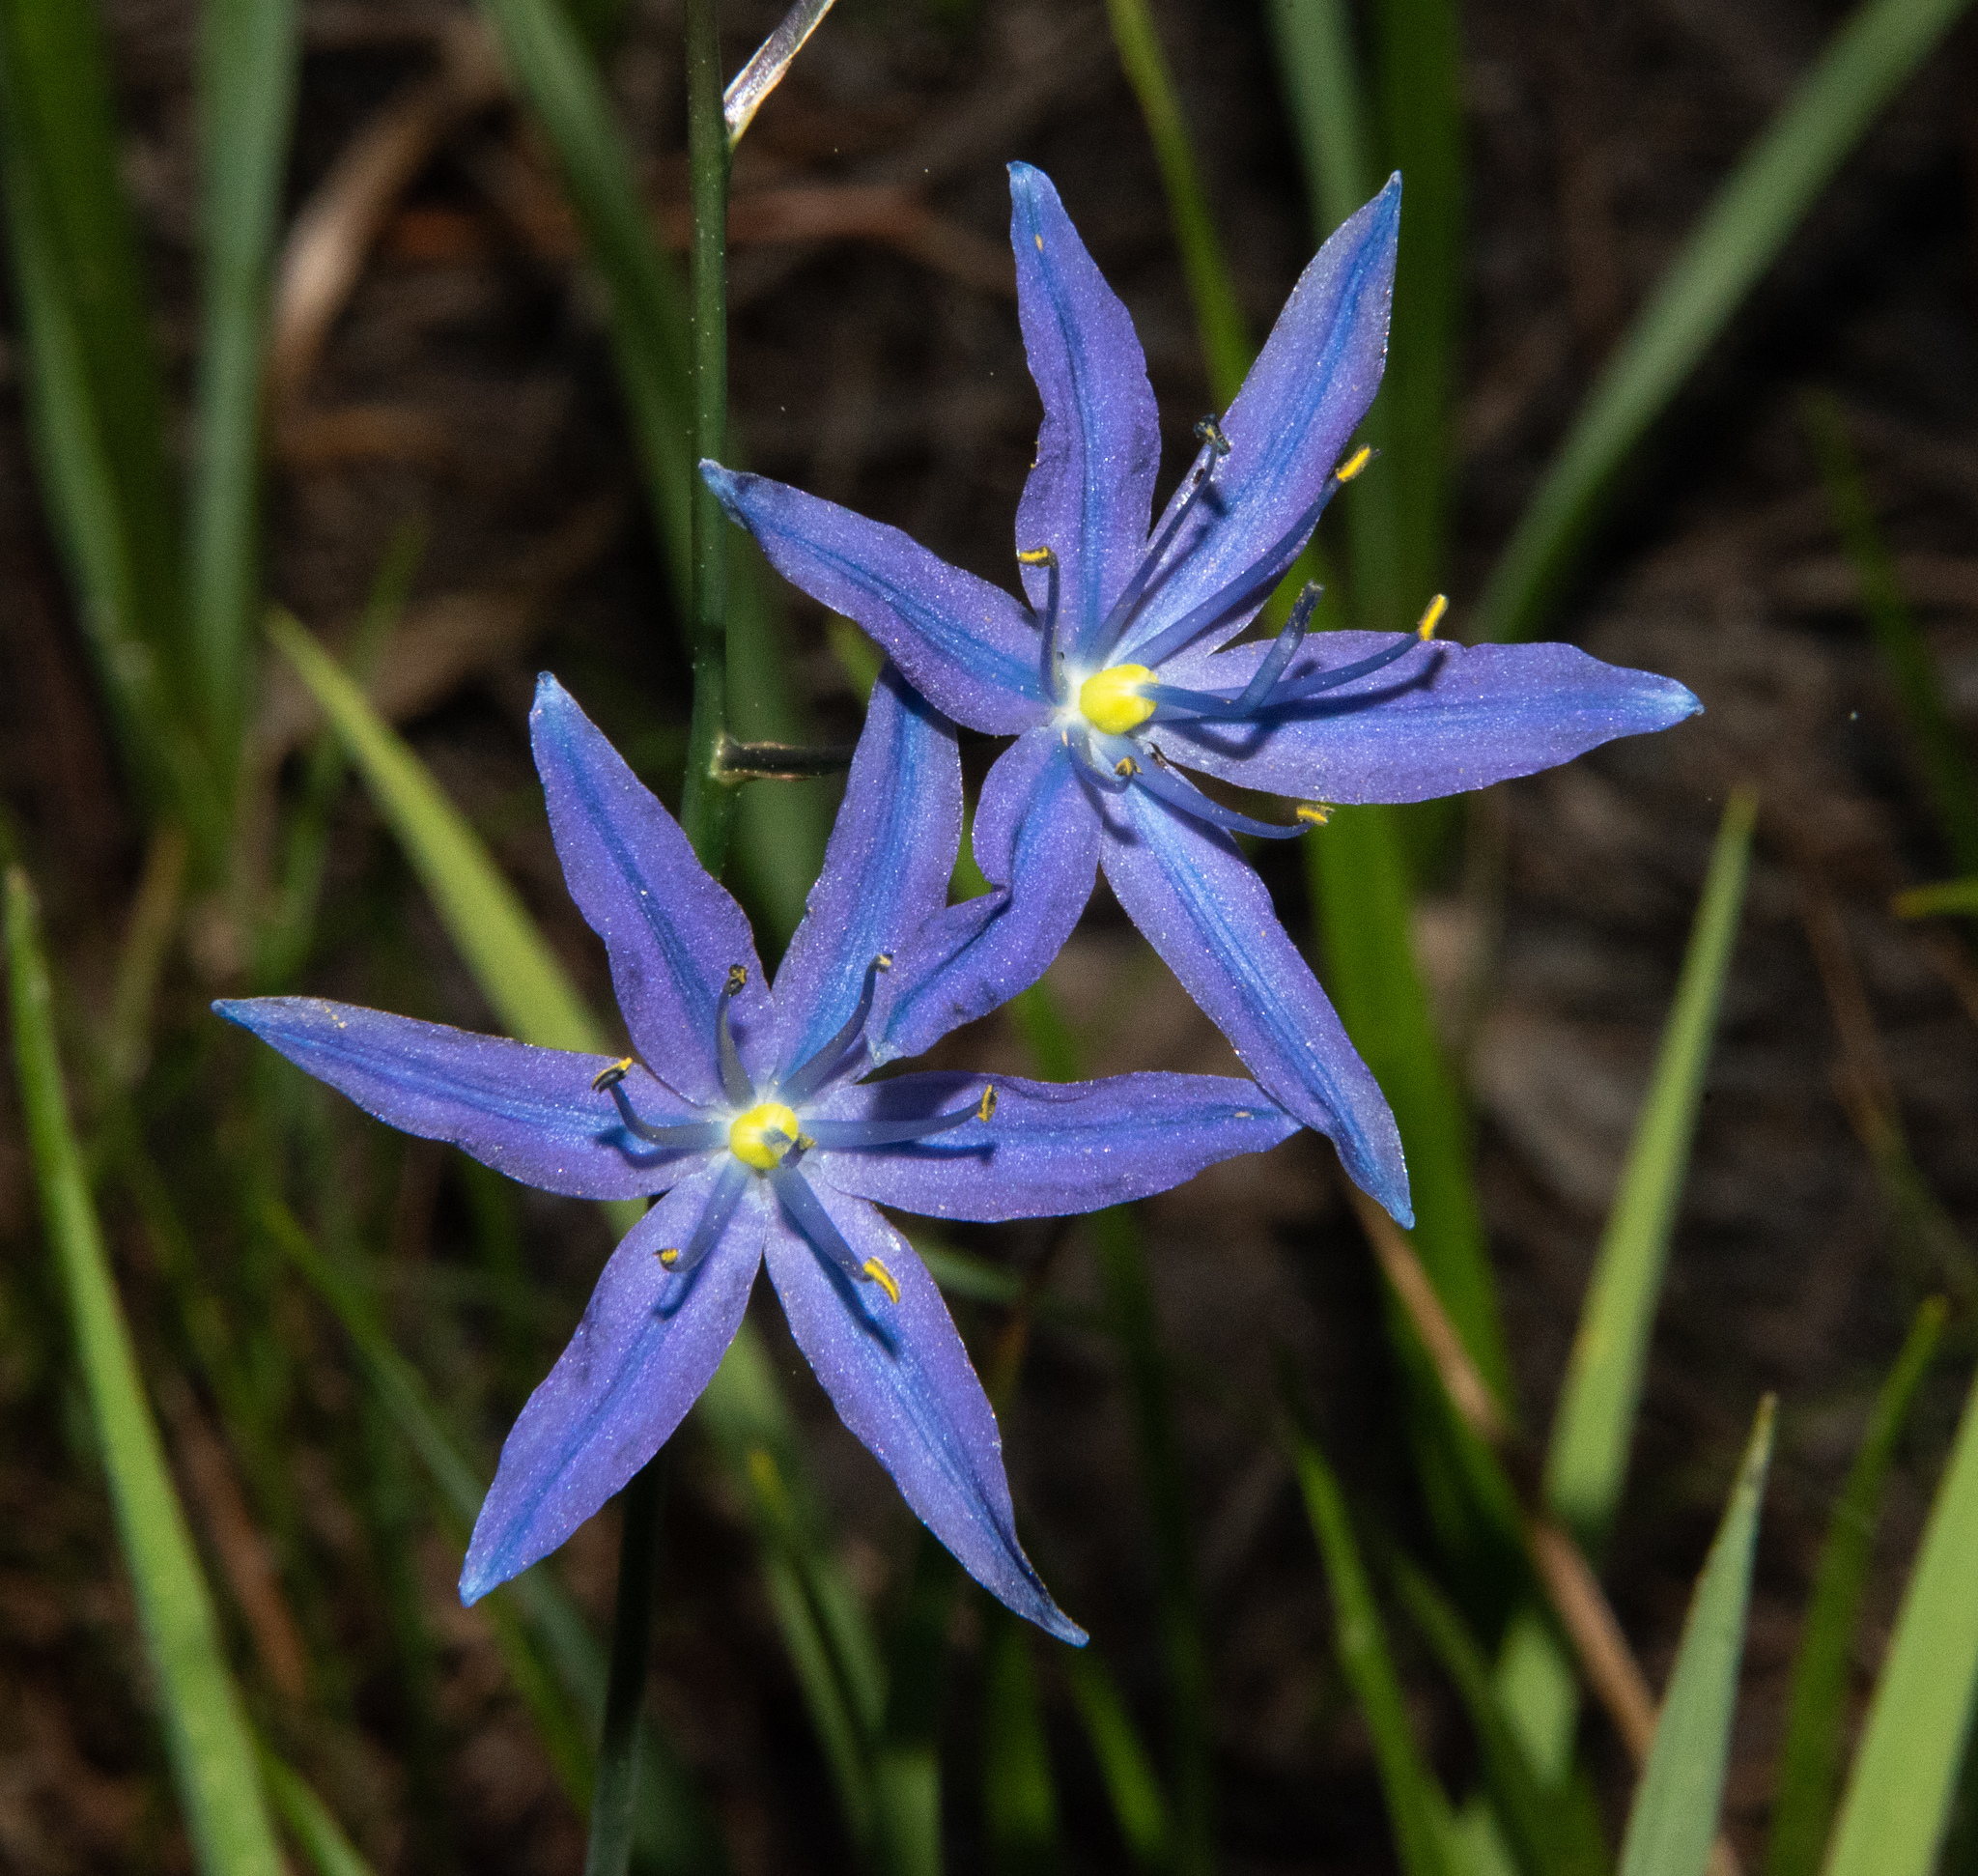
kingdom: Plantae
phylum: Tracheophyta
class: Liliopsida
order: Asparagales
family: Asparagaceae
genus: Camassia
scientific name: Camassia quamash
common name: Common camas
